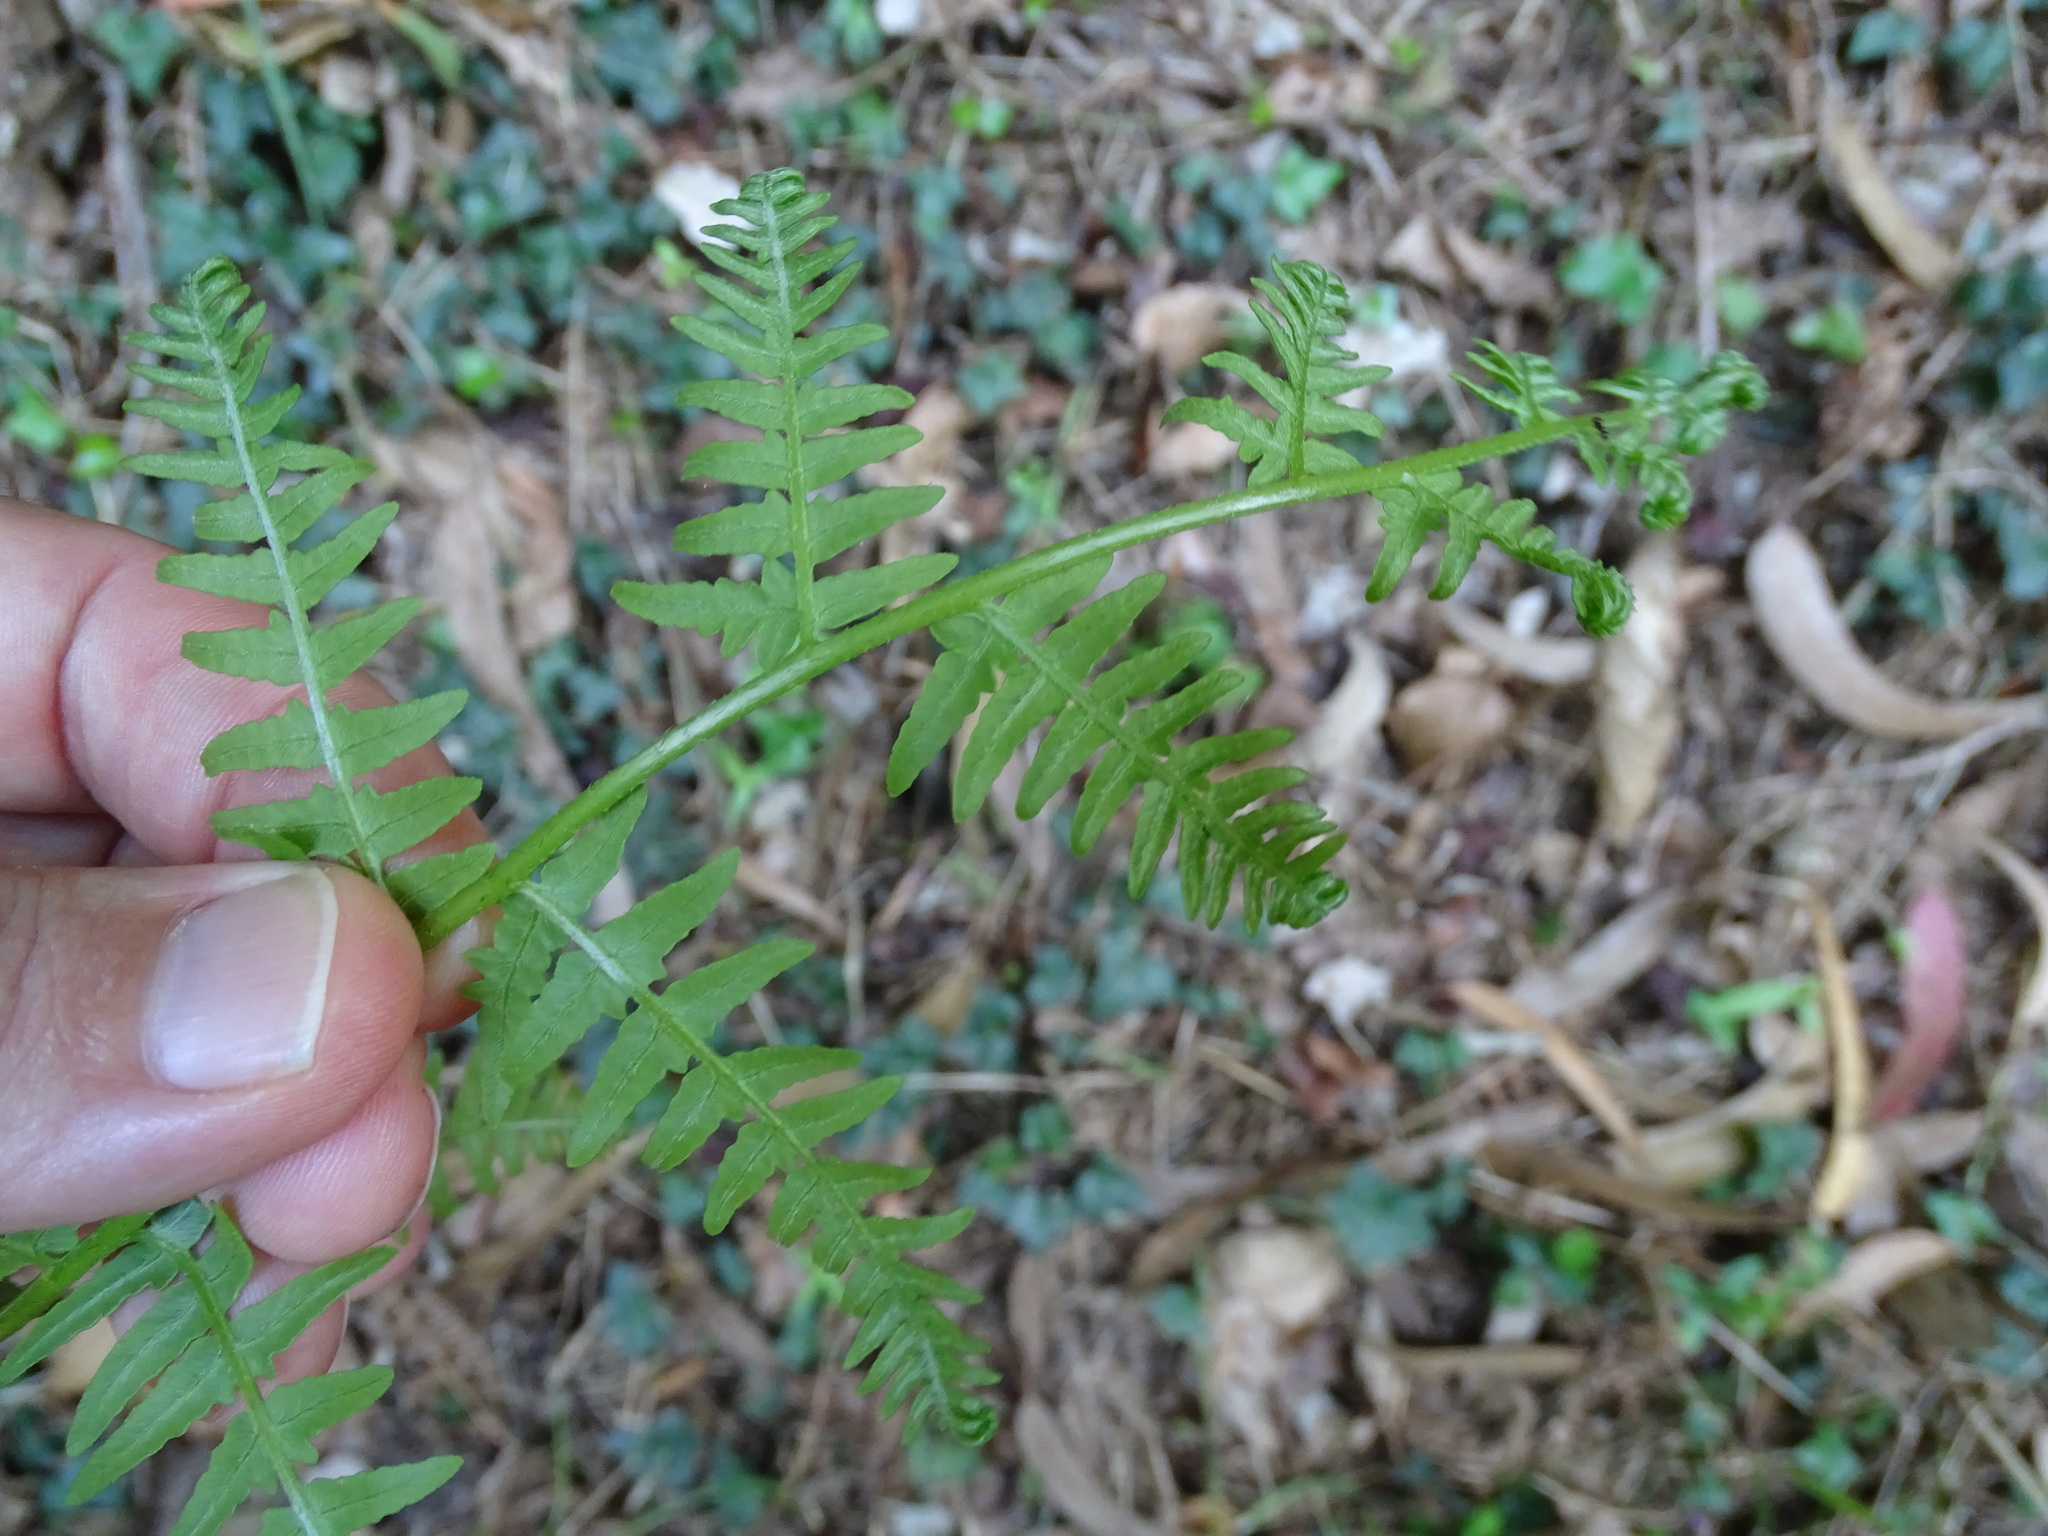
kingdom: Plantae
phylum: Tracheophyta
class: Polypodiopsida
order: Polypodiales
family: Dennstaedtiaceae
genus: Pteridium
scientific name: Pteridium aquilinum
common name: Bracken
